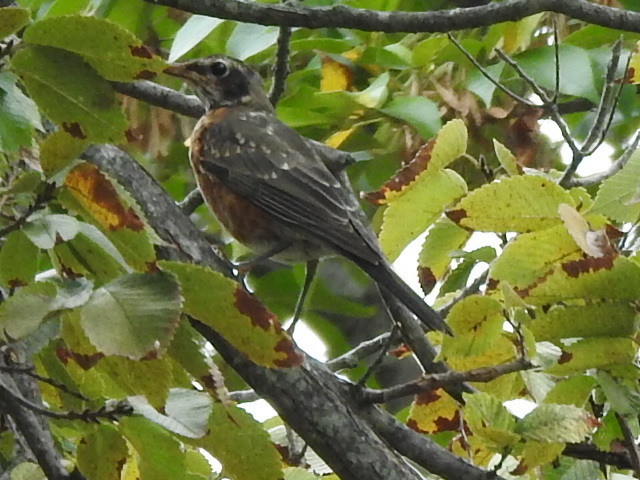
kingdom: Animalia
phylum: Chordata
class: Aves
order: Passeriformes
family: Turdidae
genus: Turdus
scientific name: Turdus migratorius
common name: American robin
